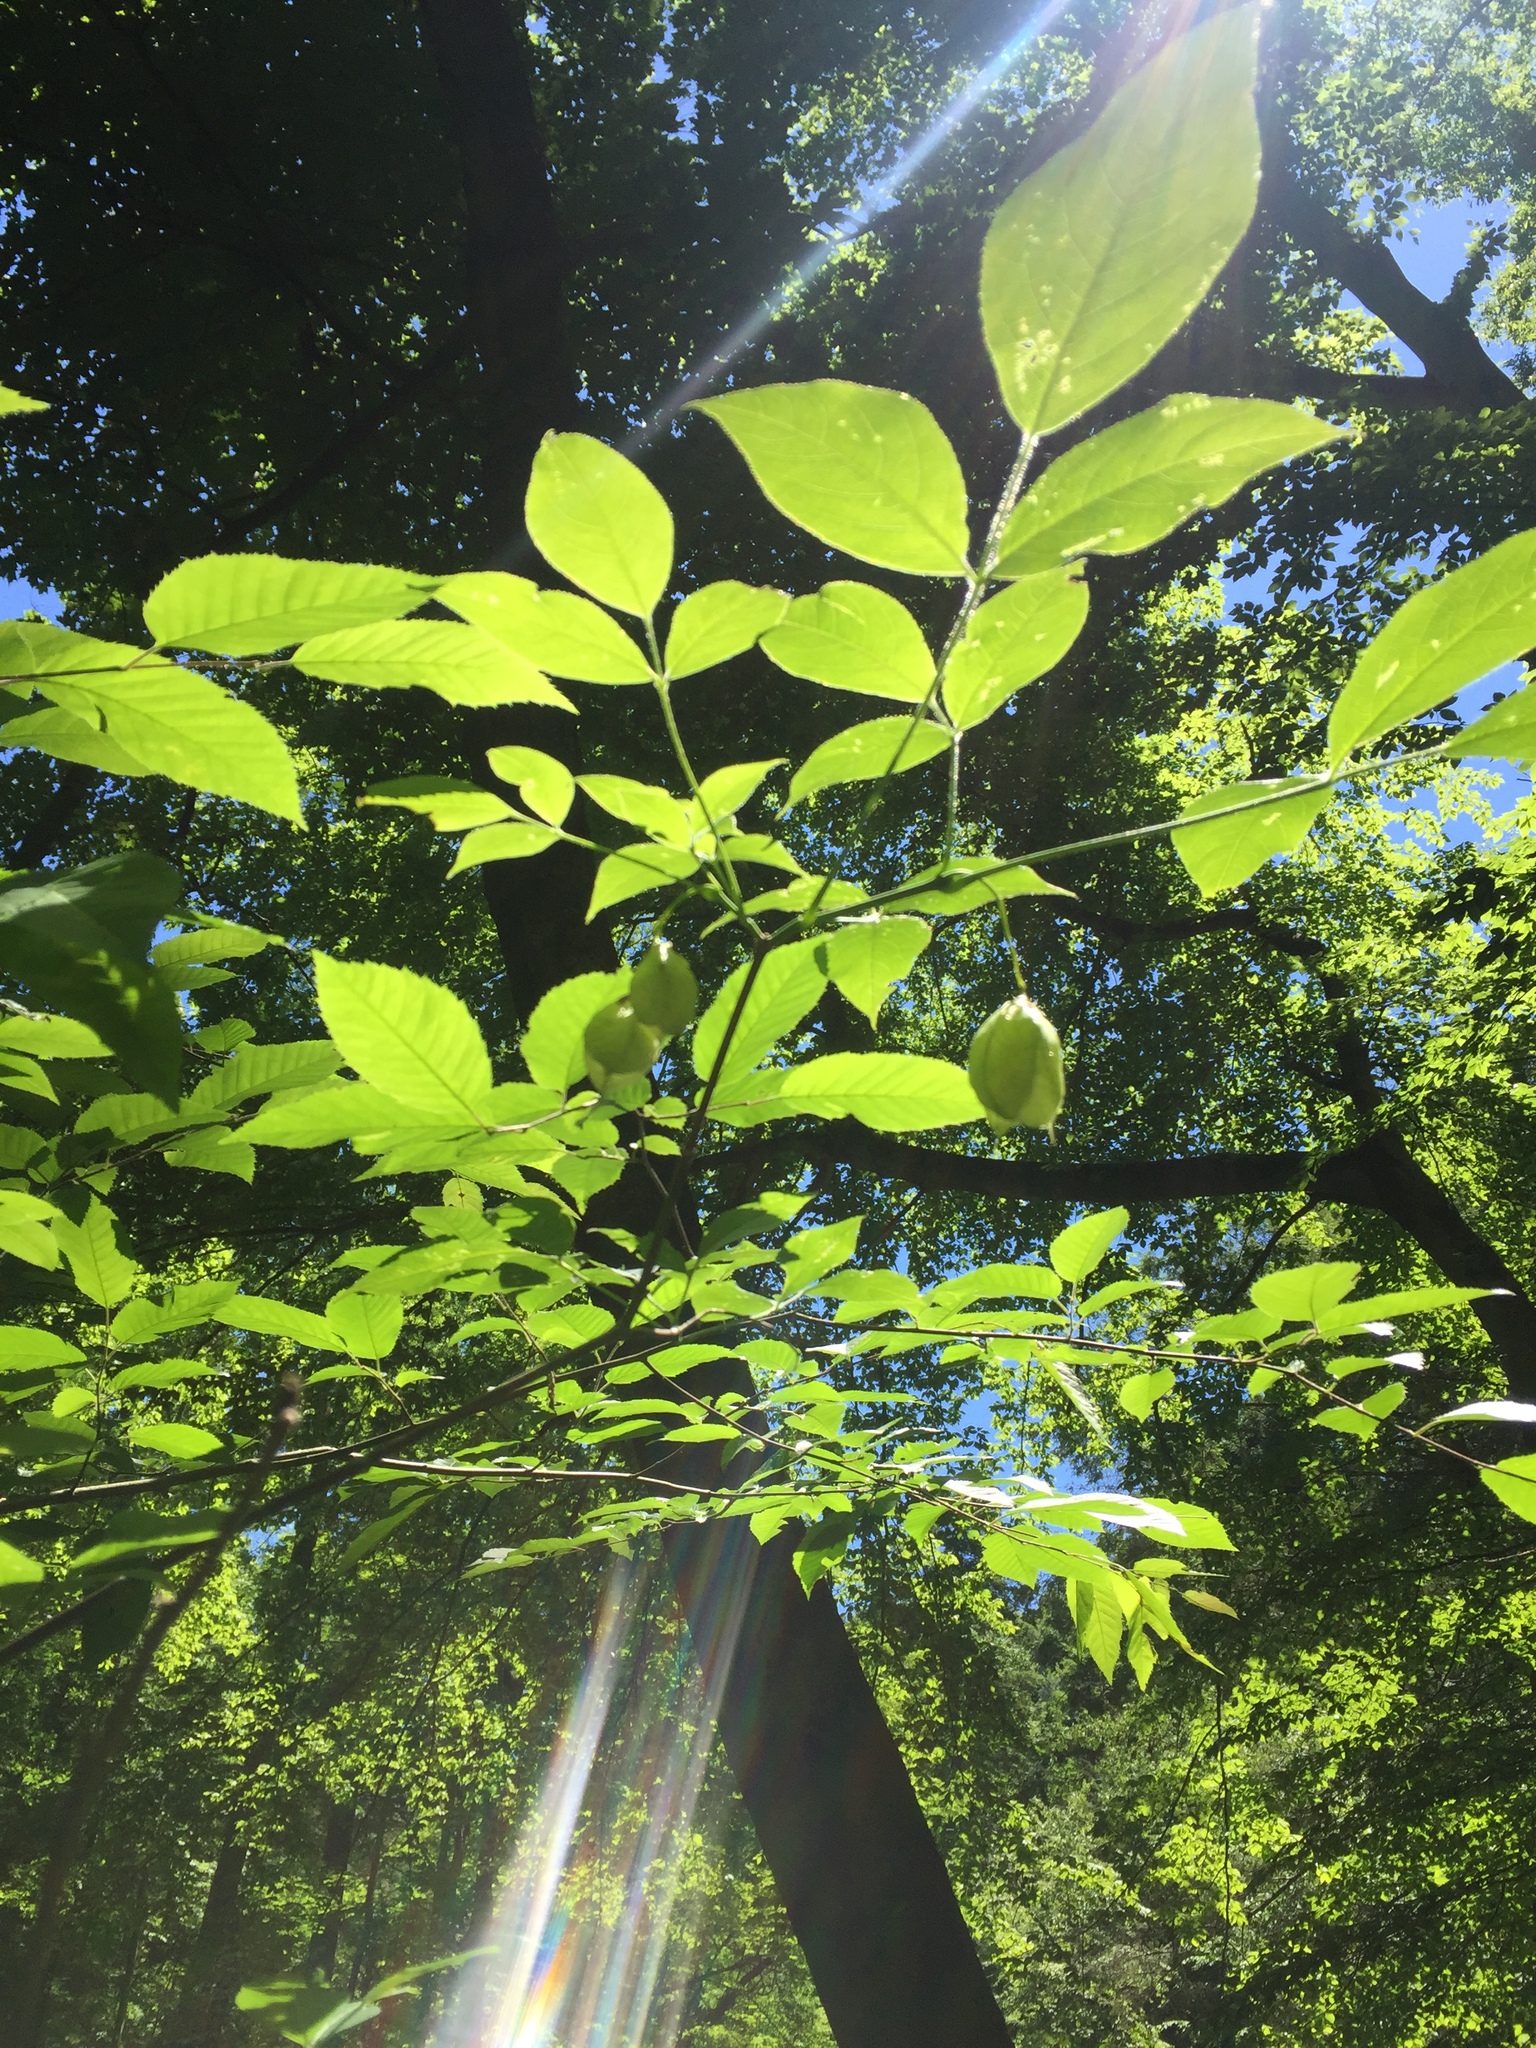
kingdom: Plantae
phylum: Tracheophyta
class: Magnoliopsida
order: Crossosomatales
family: Staphyleaceae
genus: Staphylea
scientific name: Staphylea trifolia
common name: American bladdernut
